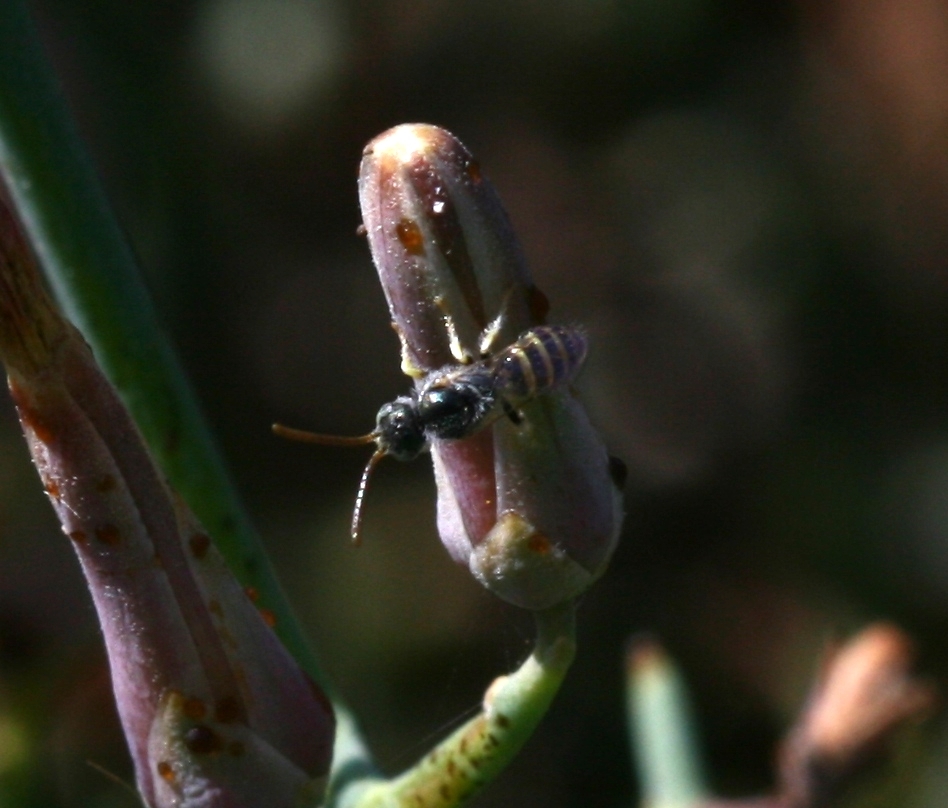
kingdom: Animalia
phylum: Arthropoda
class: Insecta
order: Hymenoptera
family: Halictidae
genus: Nomioides
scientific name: Nomioides deceptor
